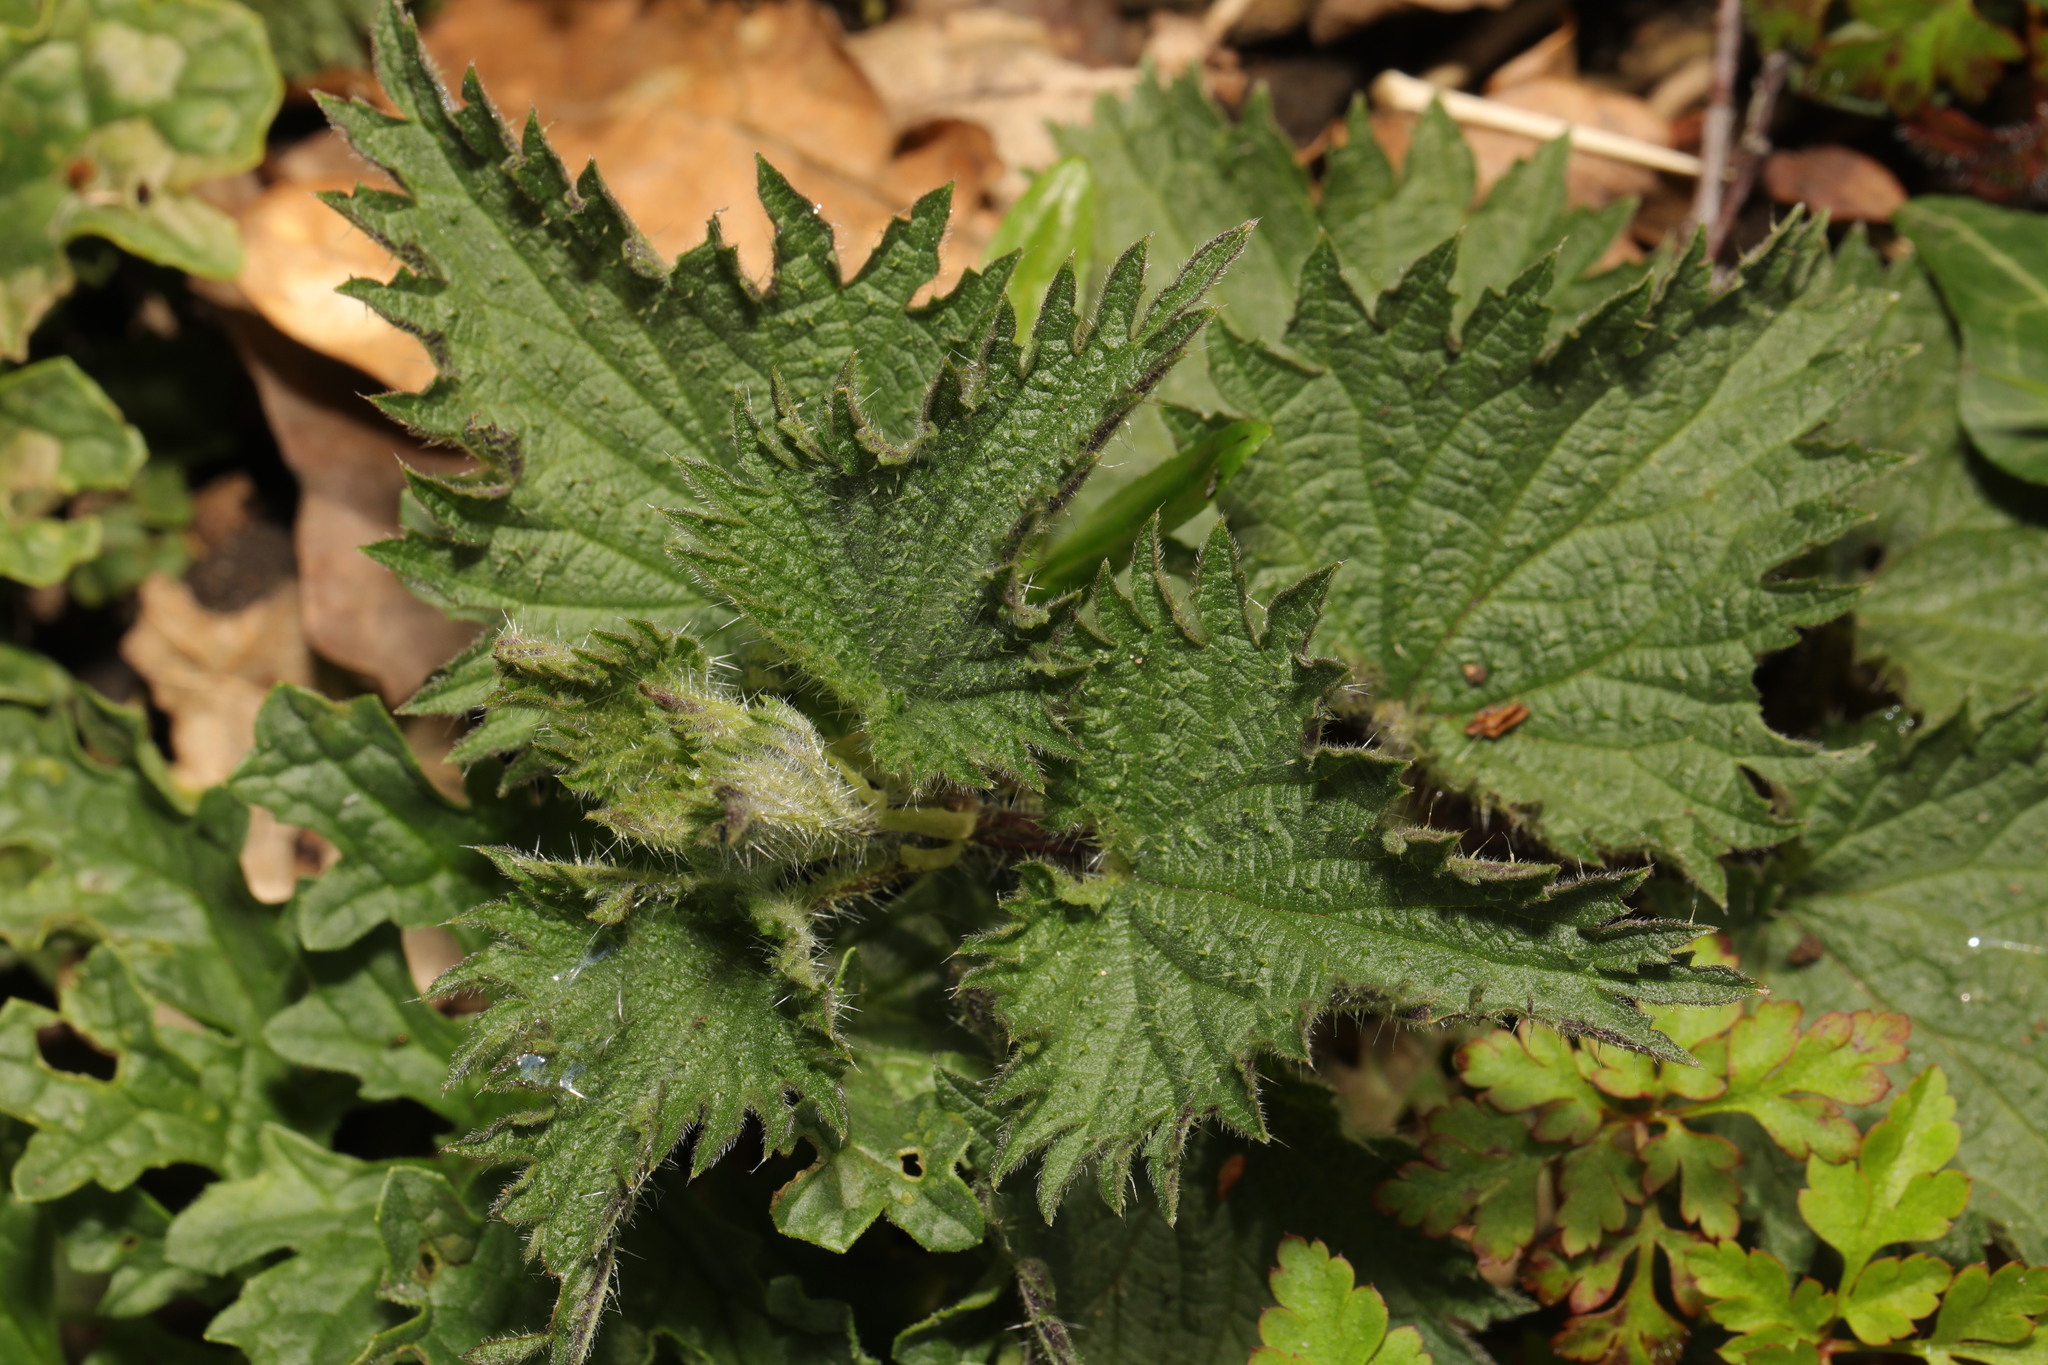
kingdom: Plantae
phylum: Tracheophyta
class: Magnoliopsida
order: Rosales
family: Urticaceae
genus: Urtica
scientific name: Urtica dioica
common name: Common nettle
